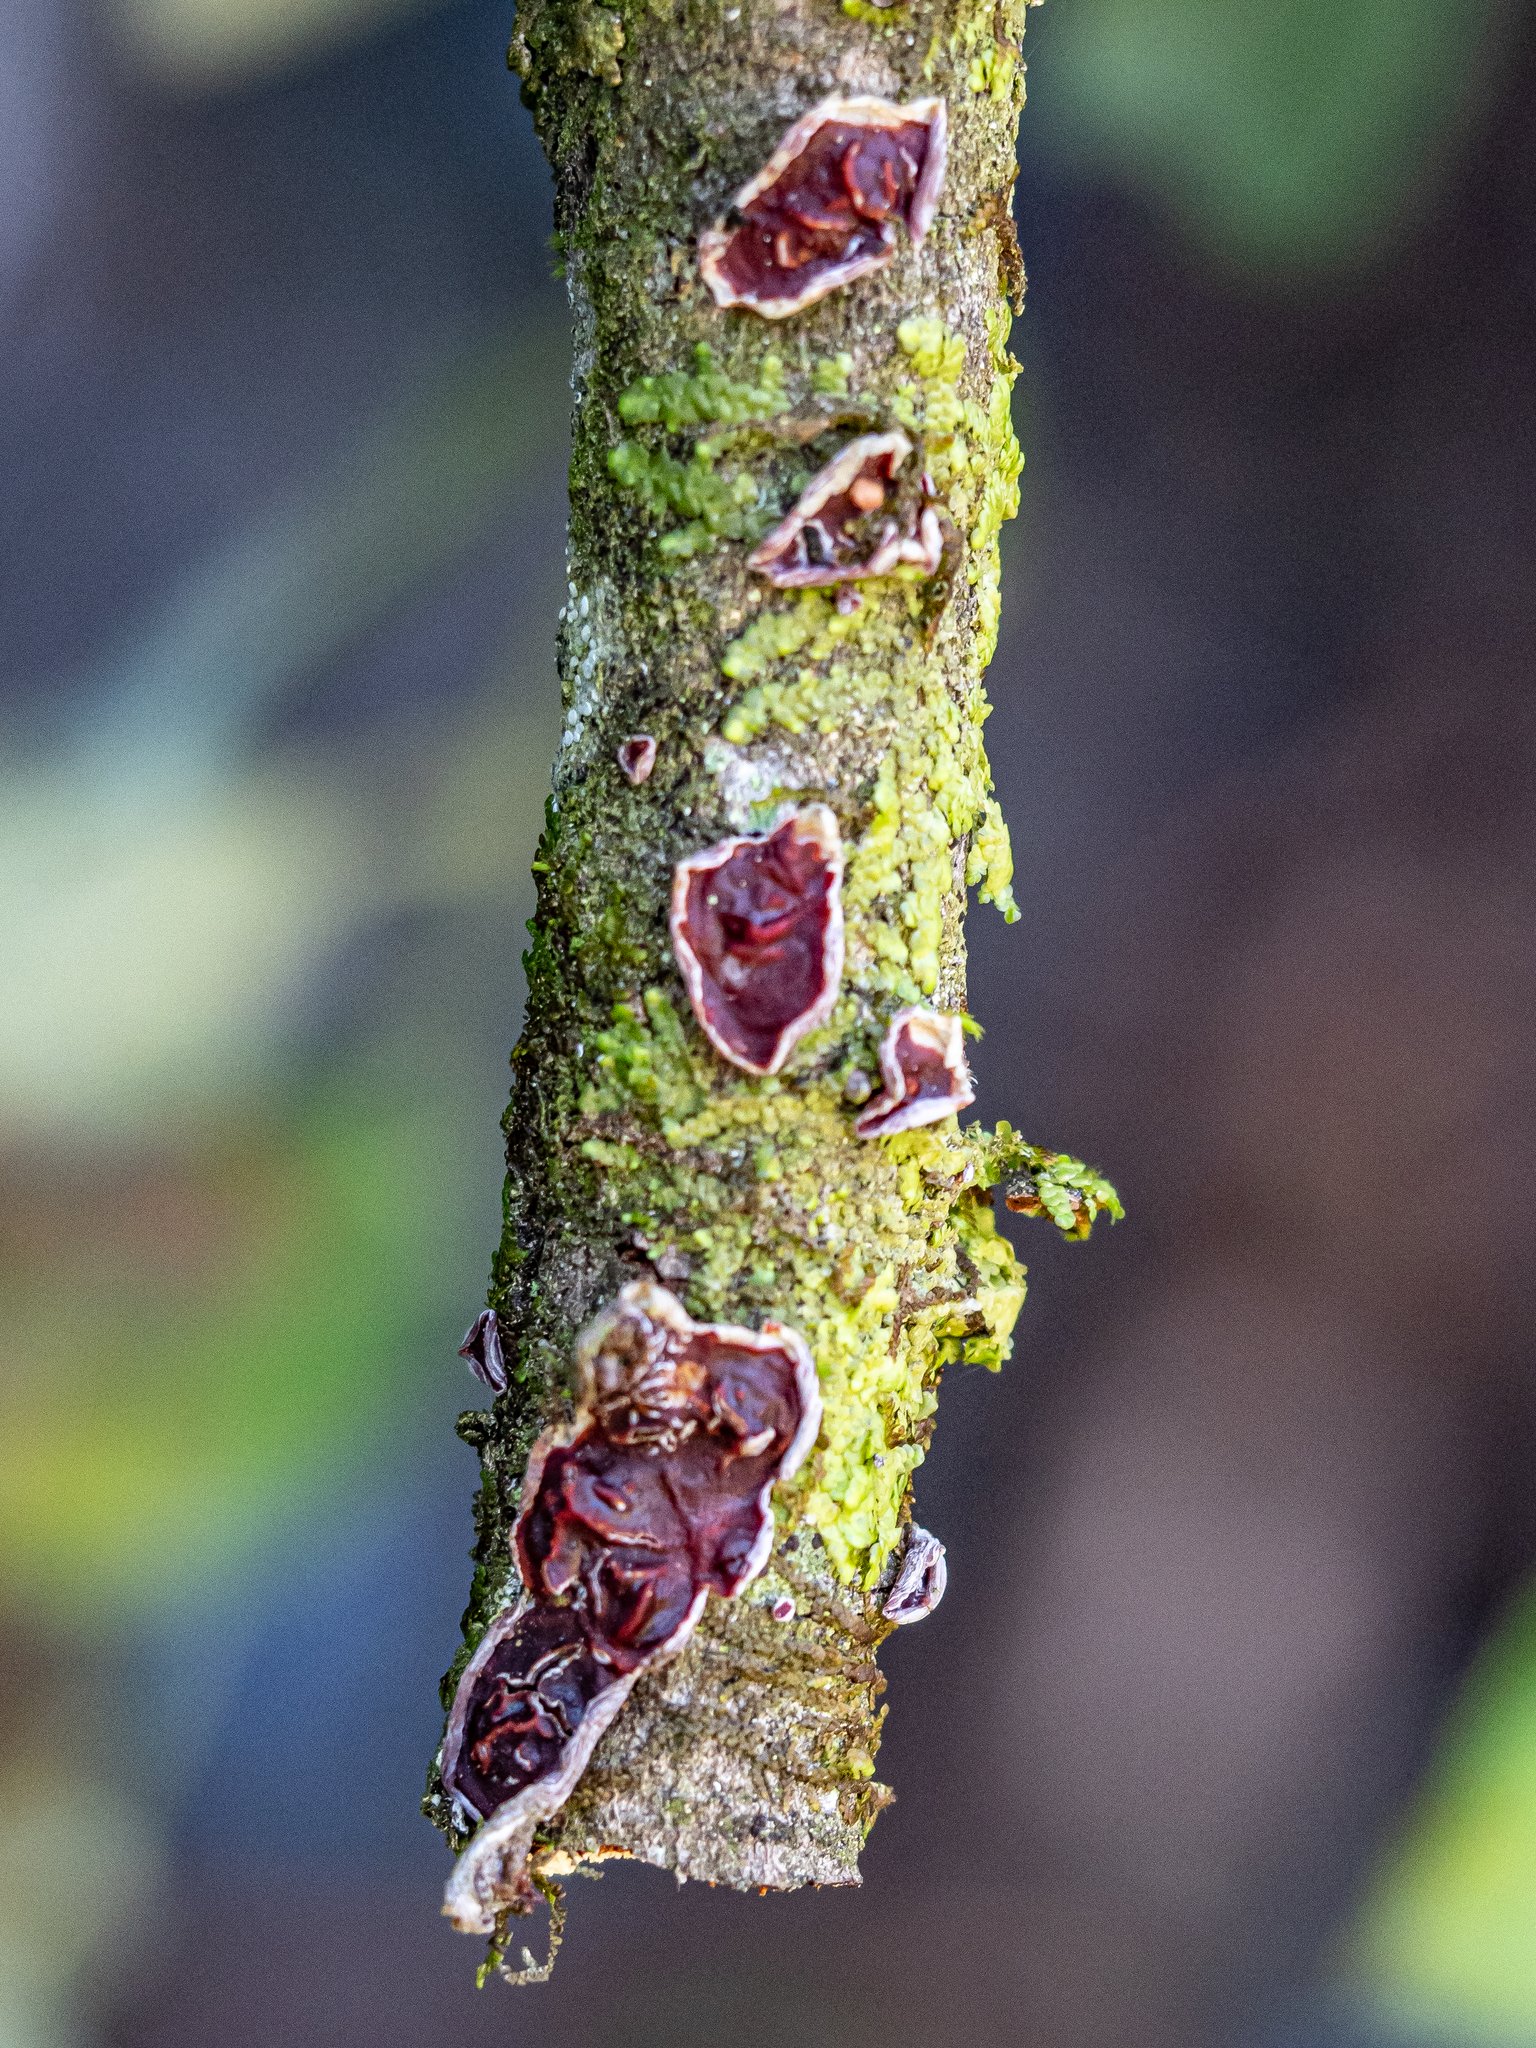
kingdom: Fungi
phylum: Basidiomycota
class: Agaricomycetes
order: Corticiales
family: Vuilleminiaceae
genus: Cytidia
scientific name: Cytidia salicina
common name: Scarlet splash
